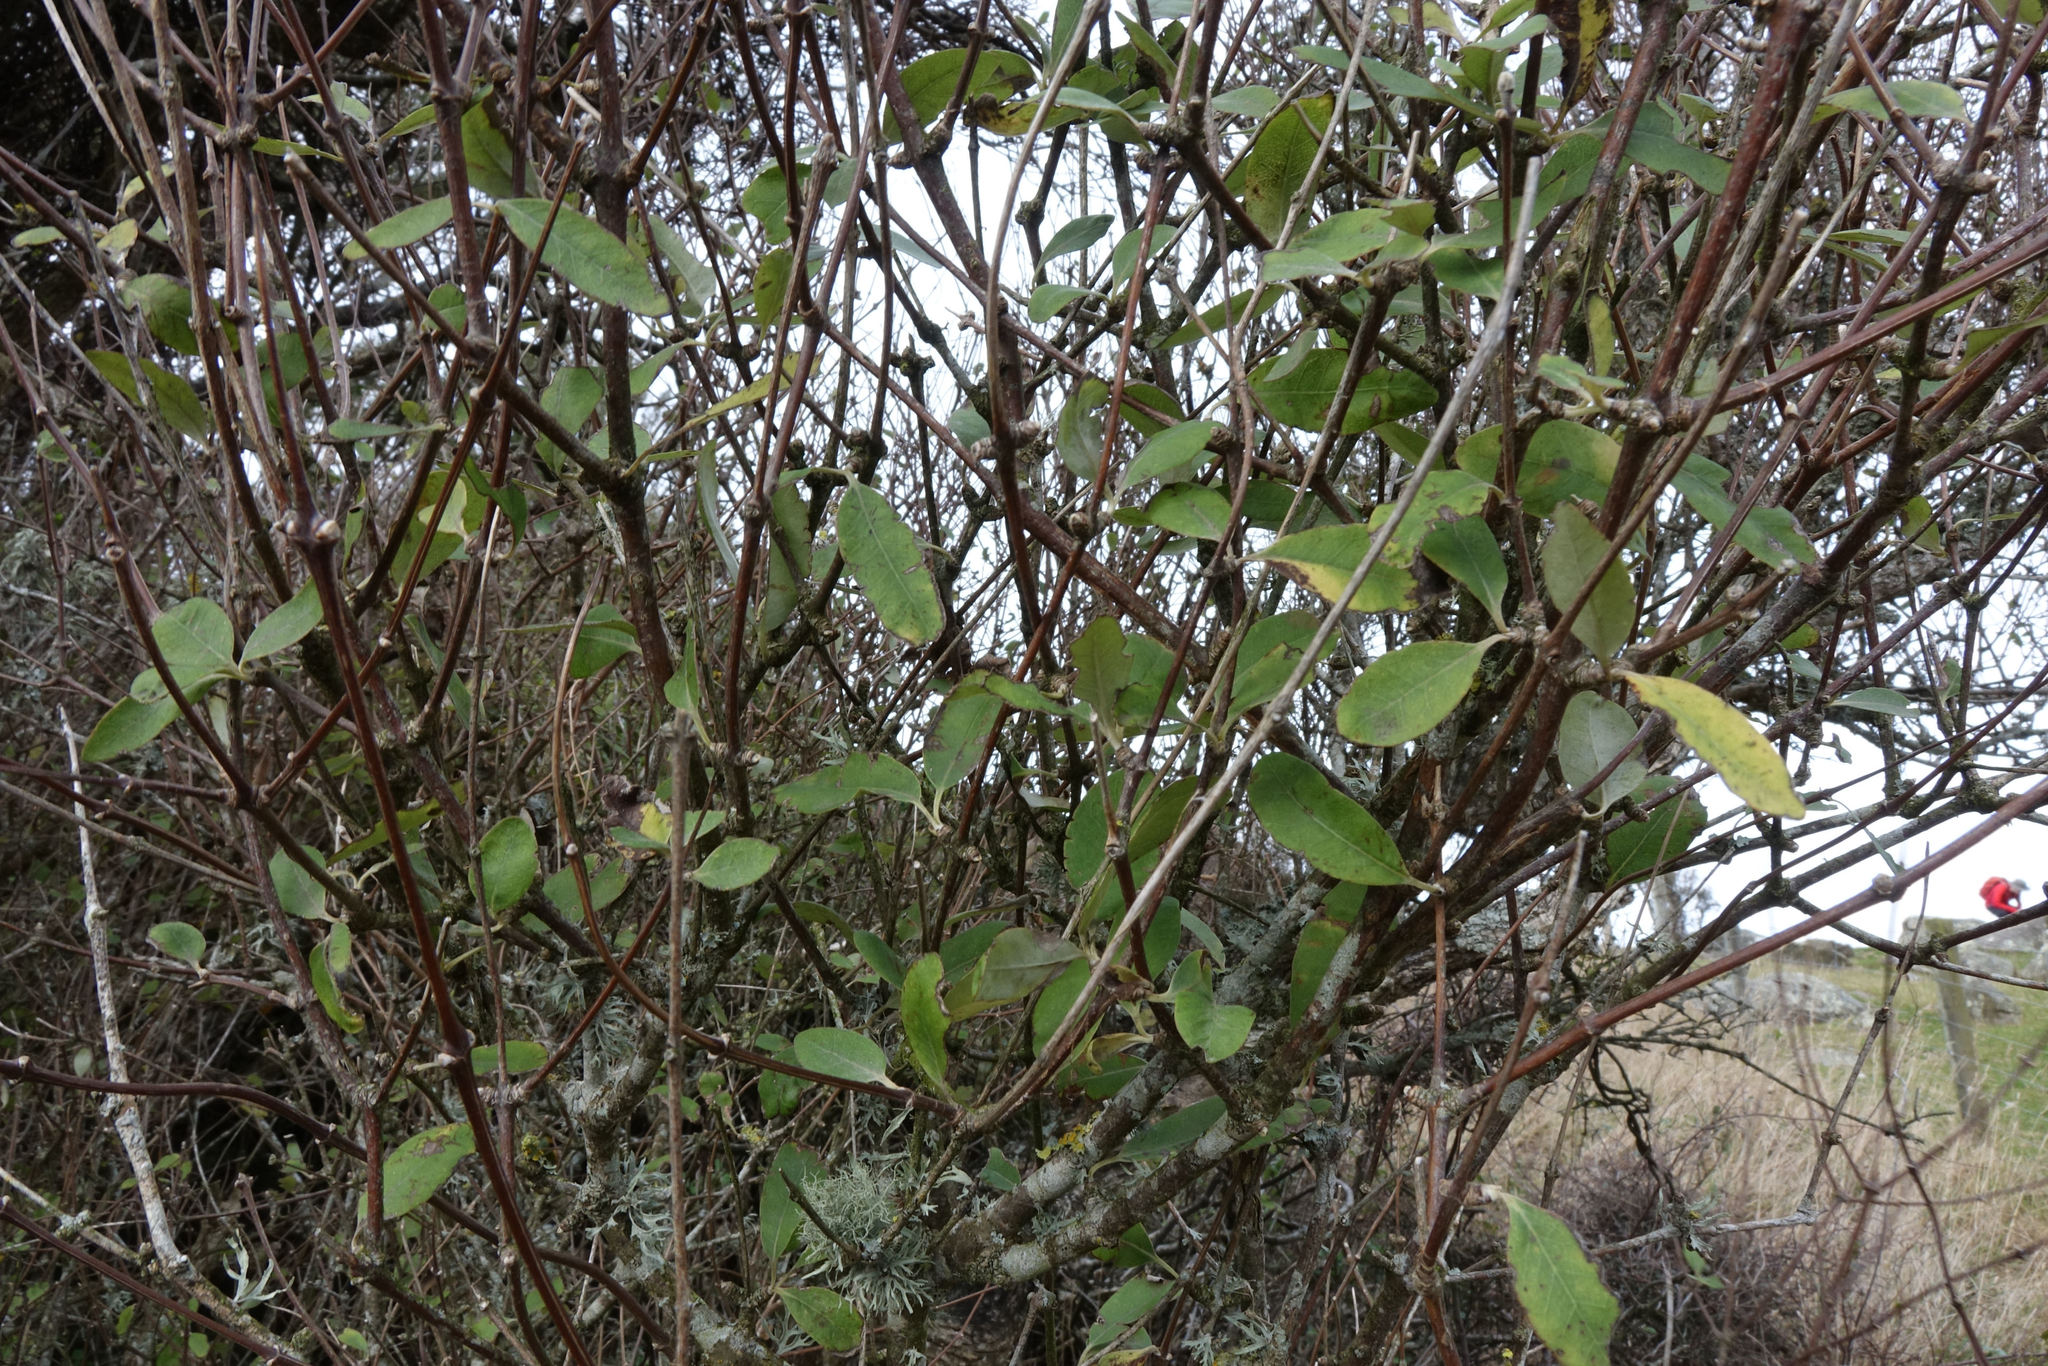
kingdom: Plantae
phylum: Tracheophyta
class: Magnoliopsida
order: Asterales
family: Asteraceae
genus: Olearia
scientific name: Olearia hectorii
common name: Deciduous tree daisy
